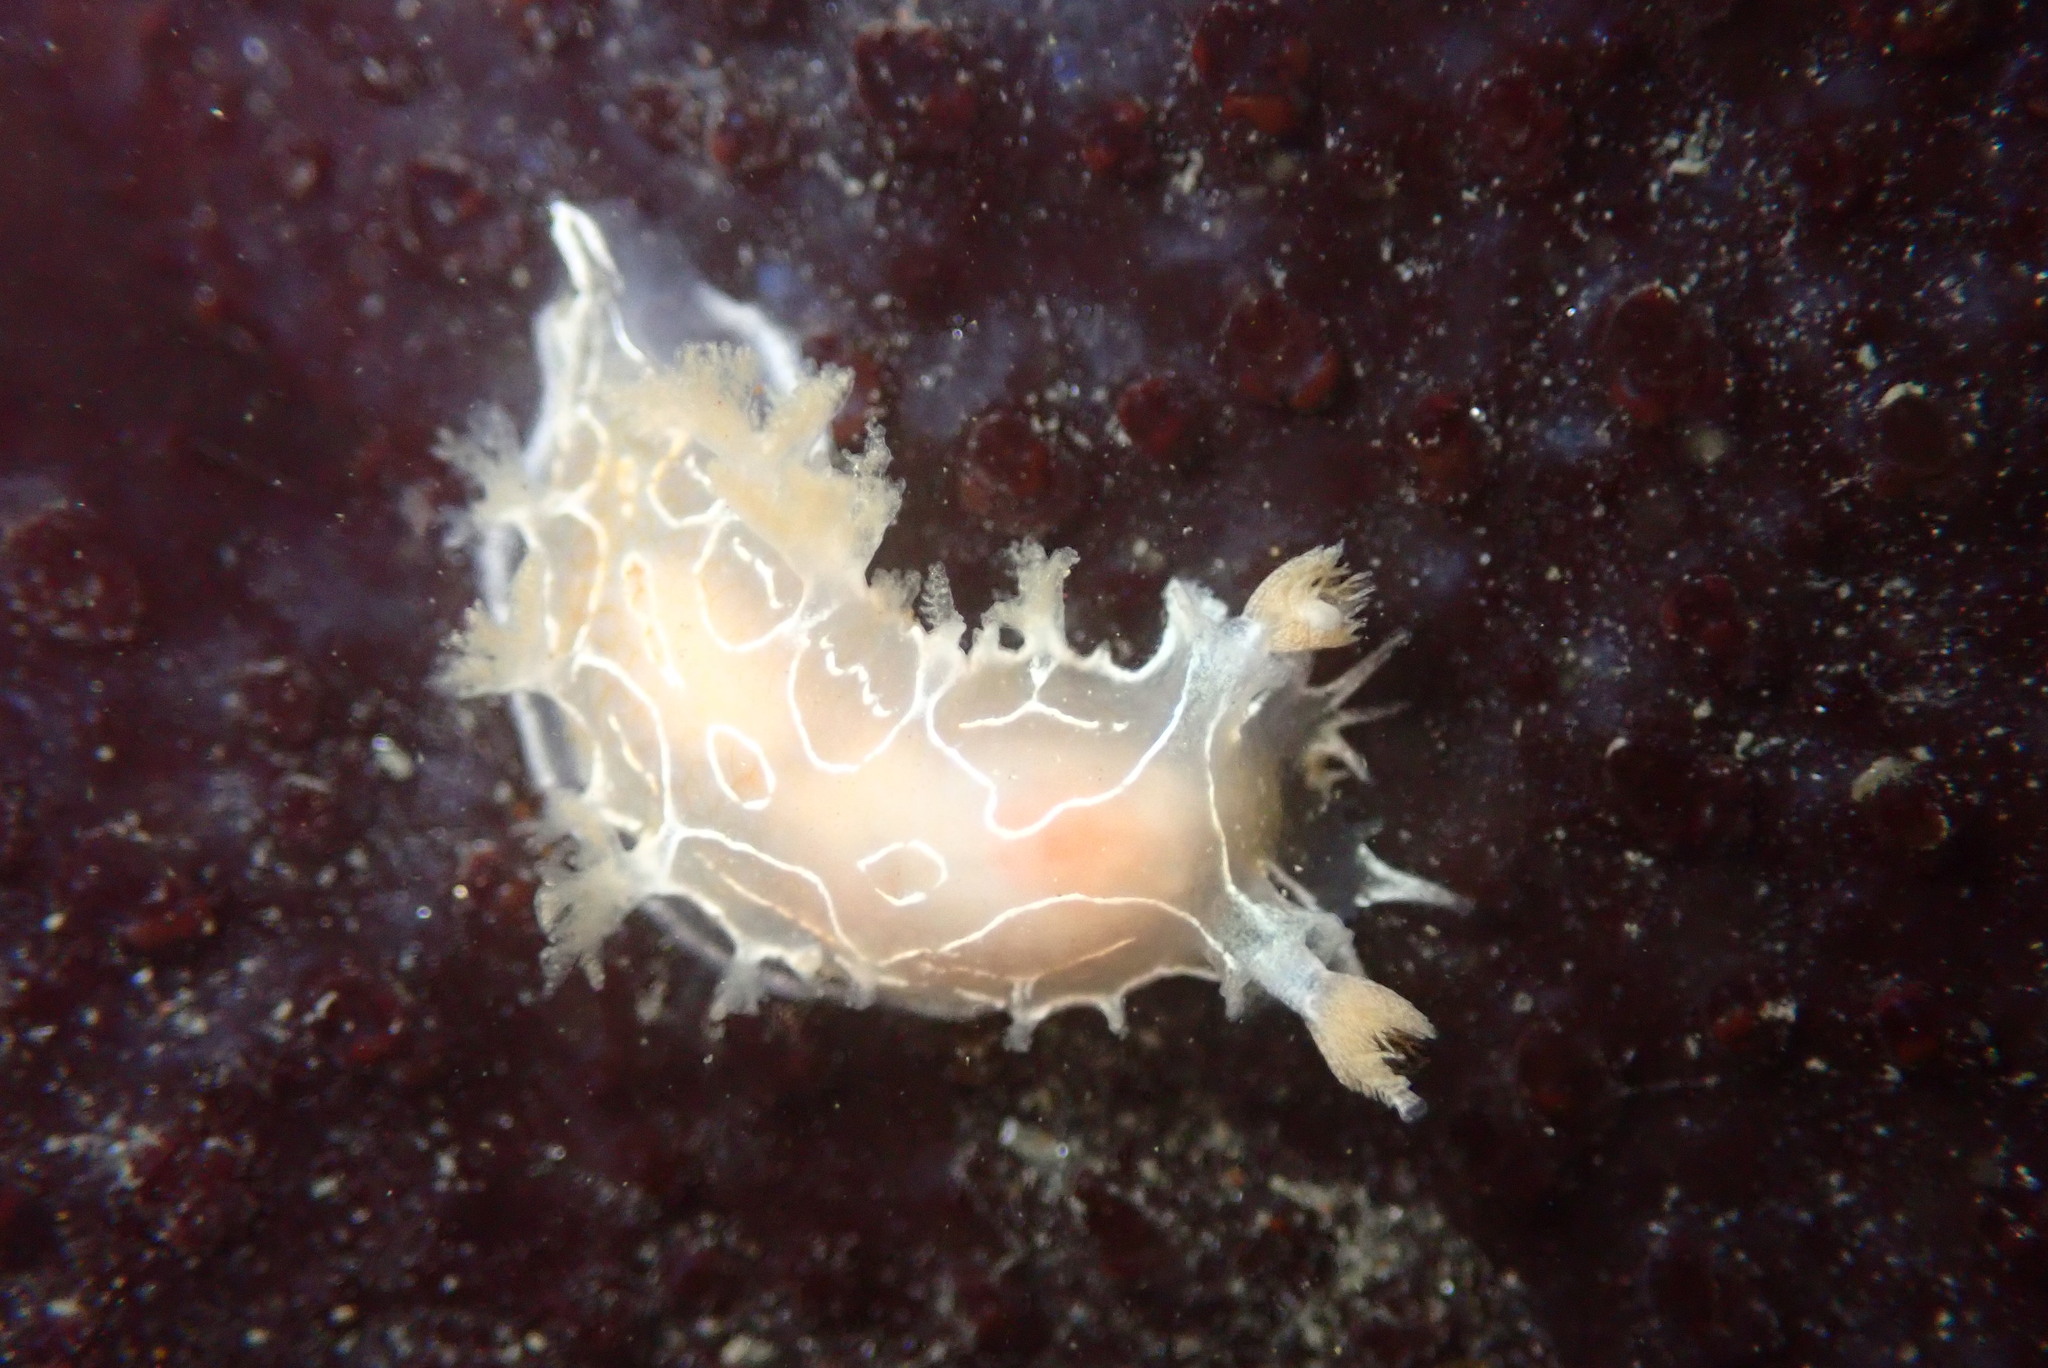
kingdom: Animalia
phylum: Mollusca
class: Gastropoda
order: Nudibranchia
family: Tritoniidae
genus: Tritonia
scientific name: Tritonia festiva
